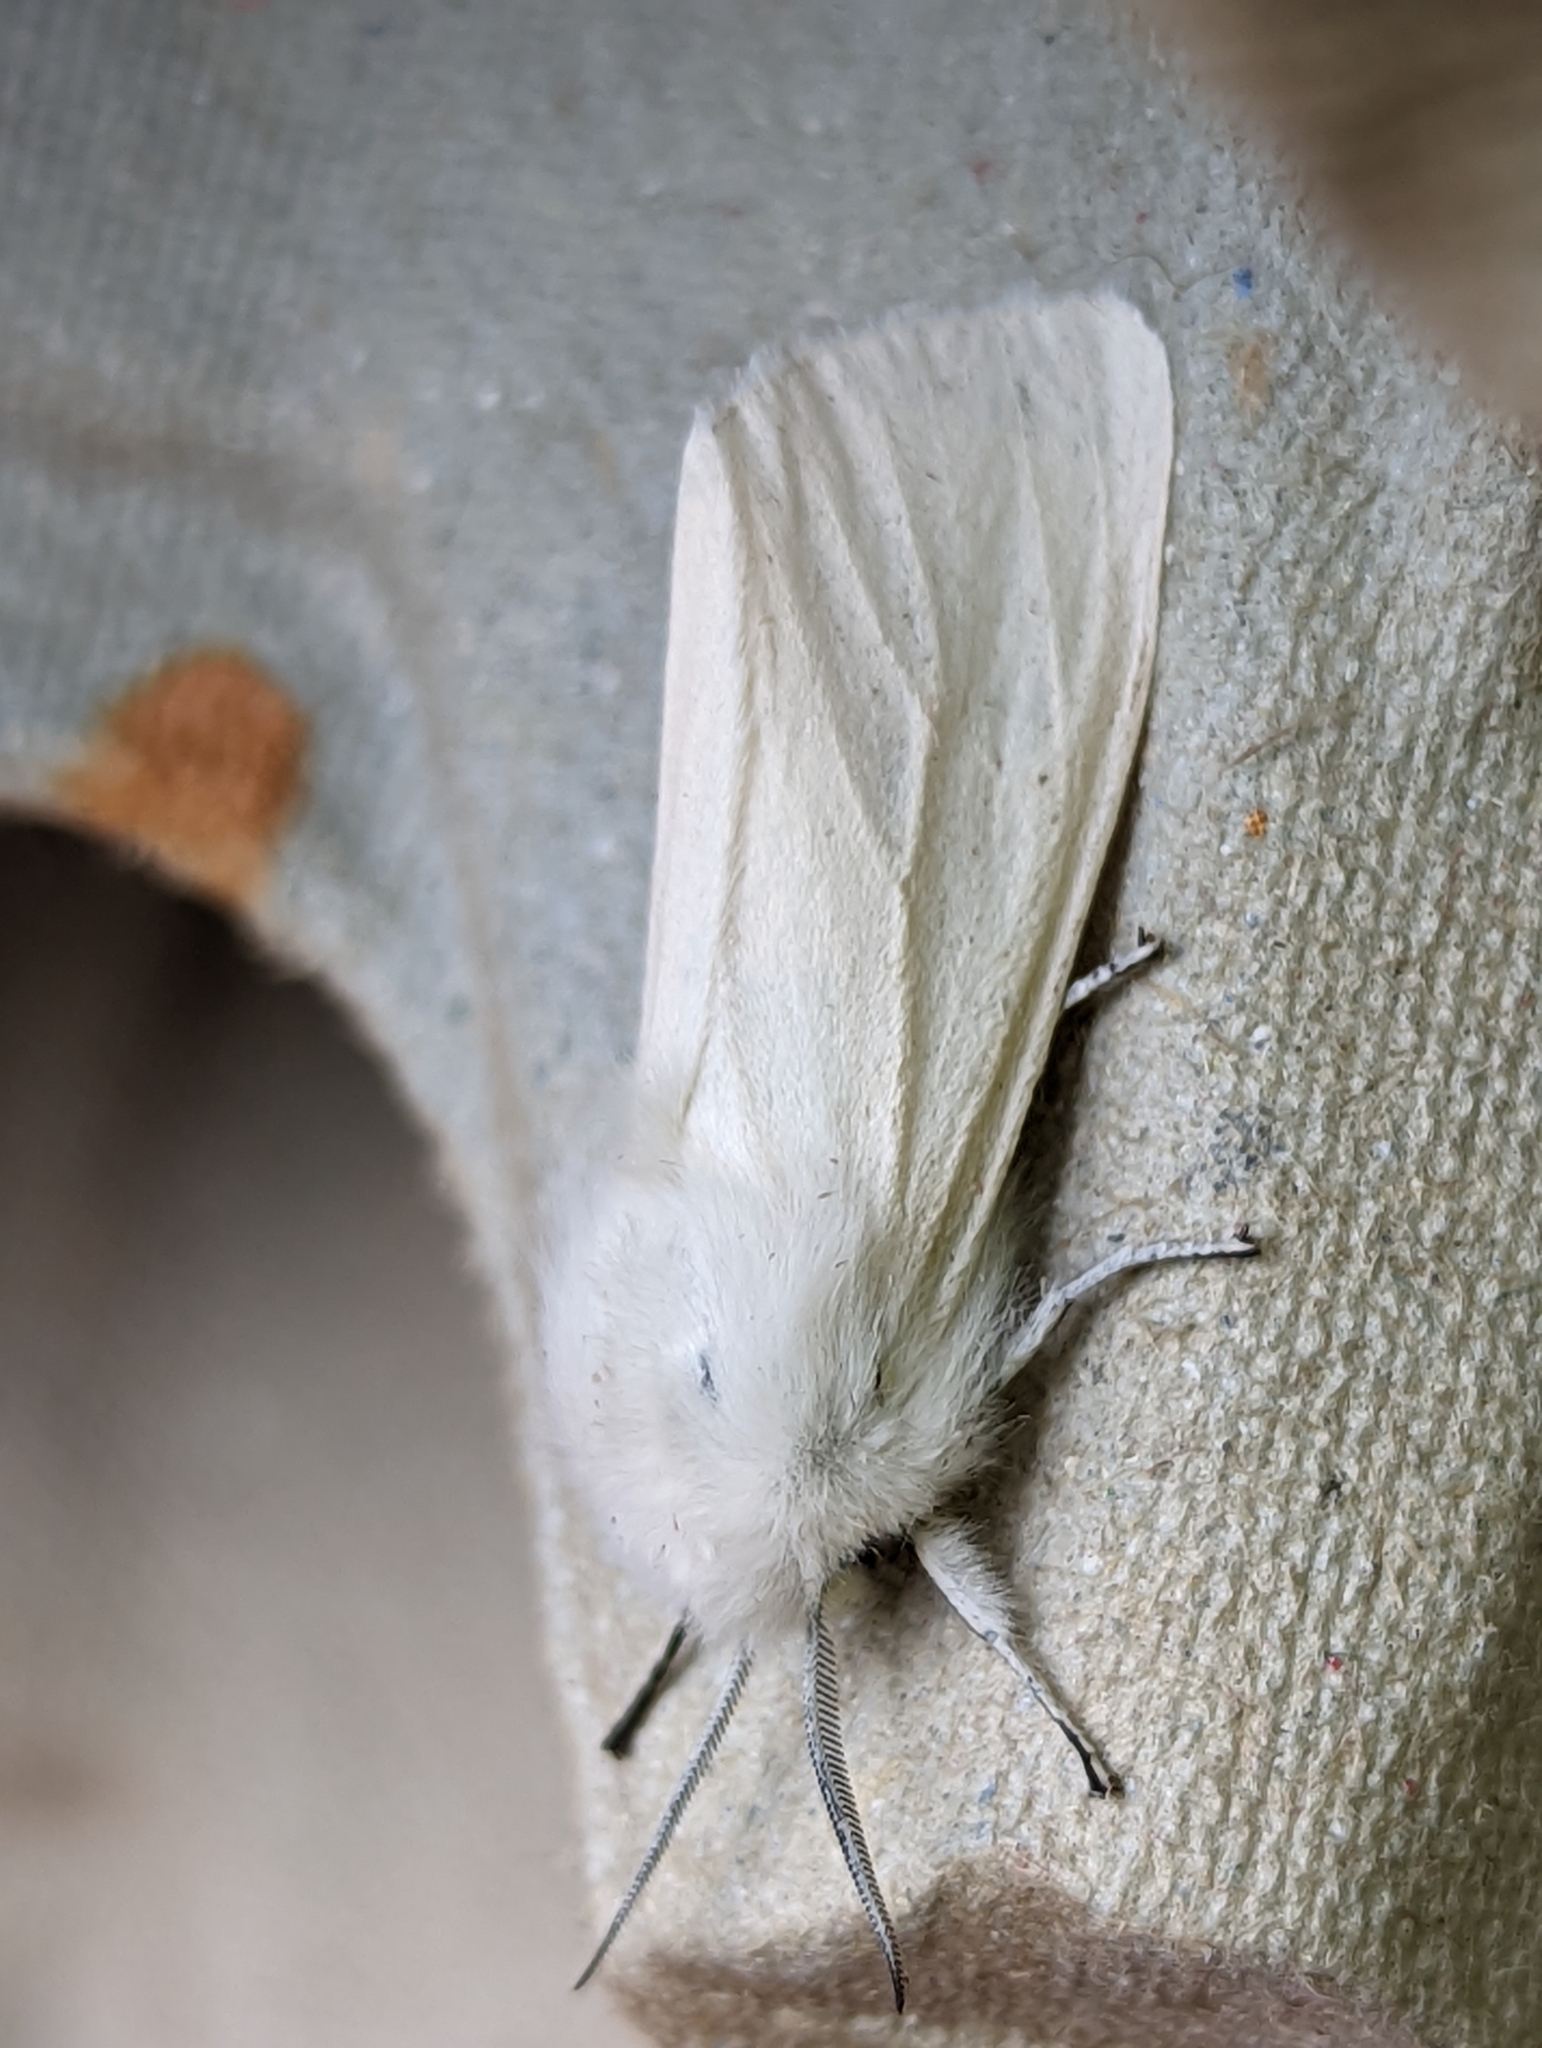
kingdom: Animalia
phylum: Arthropoda
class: Insecta
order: Lepidoptera
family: Erebidae
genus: Spilosoma
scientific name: Spilosoma urticae
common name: Water ermine
